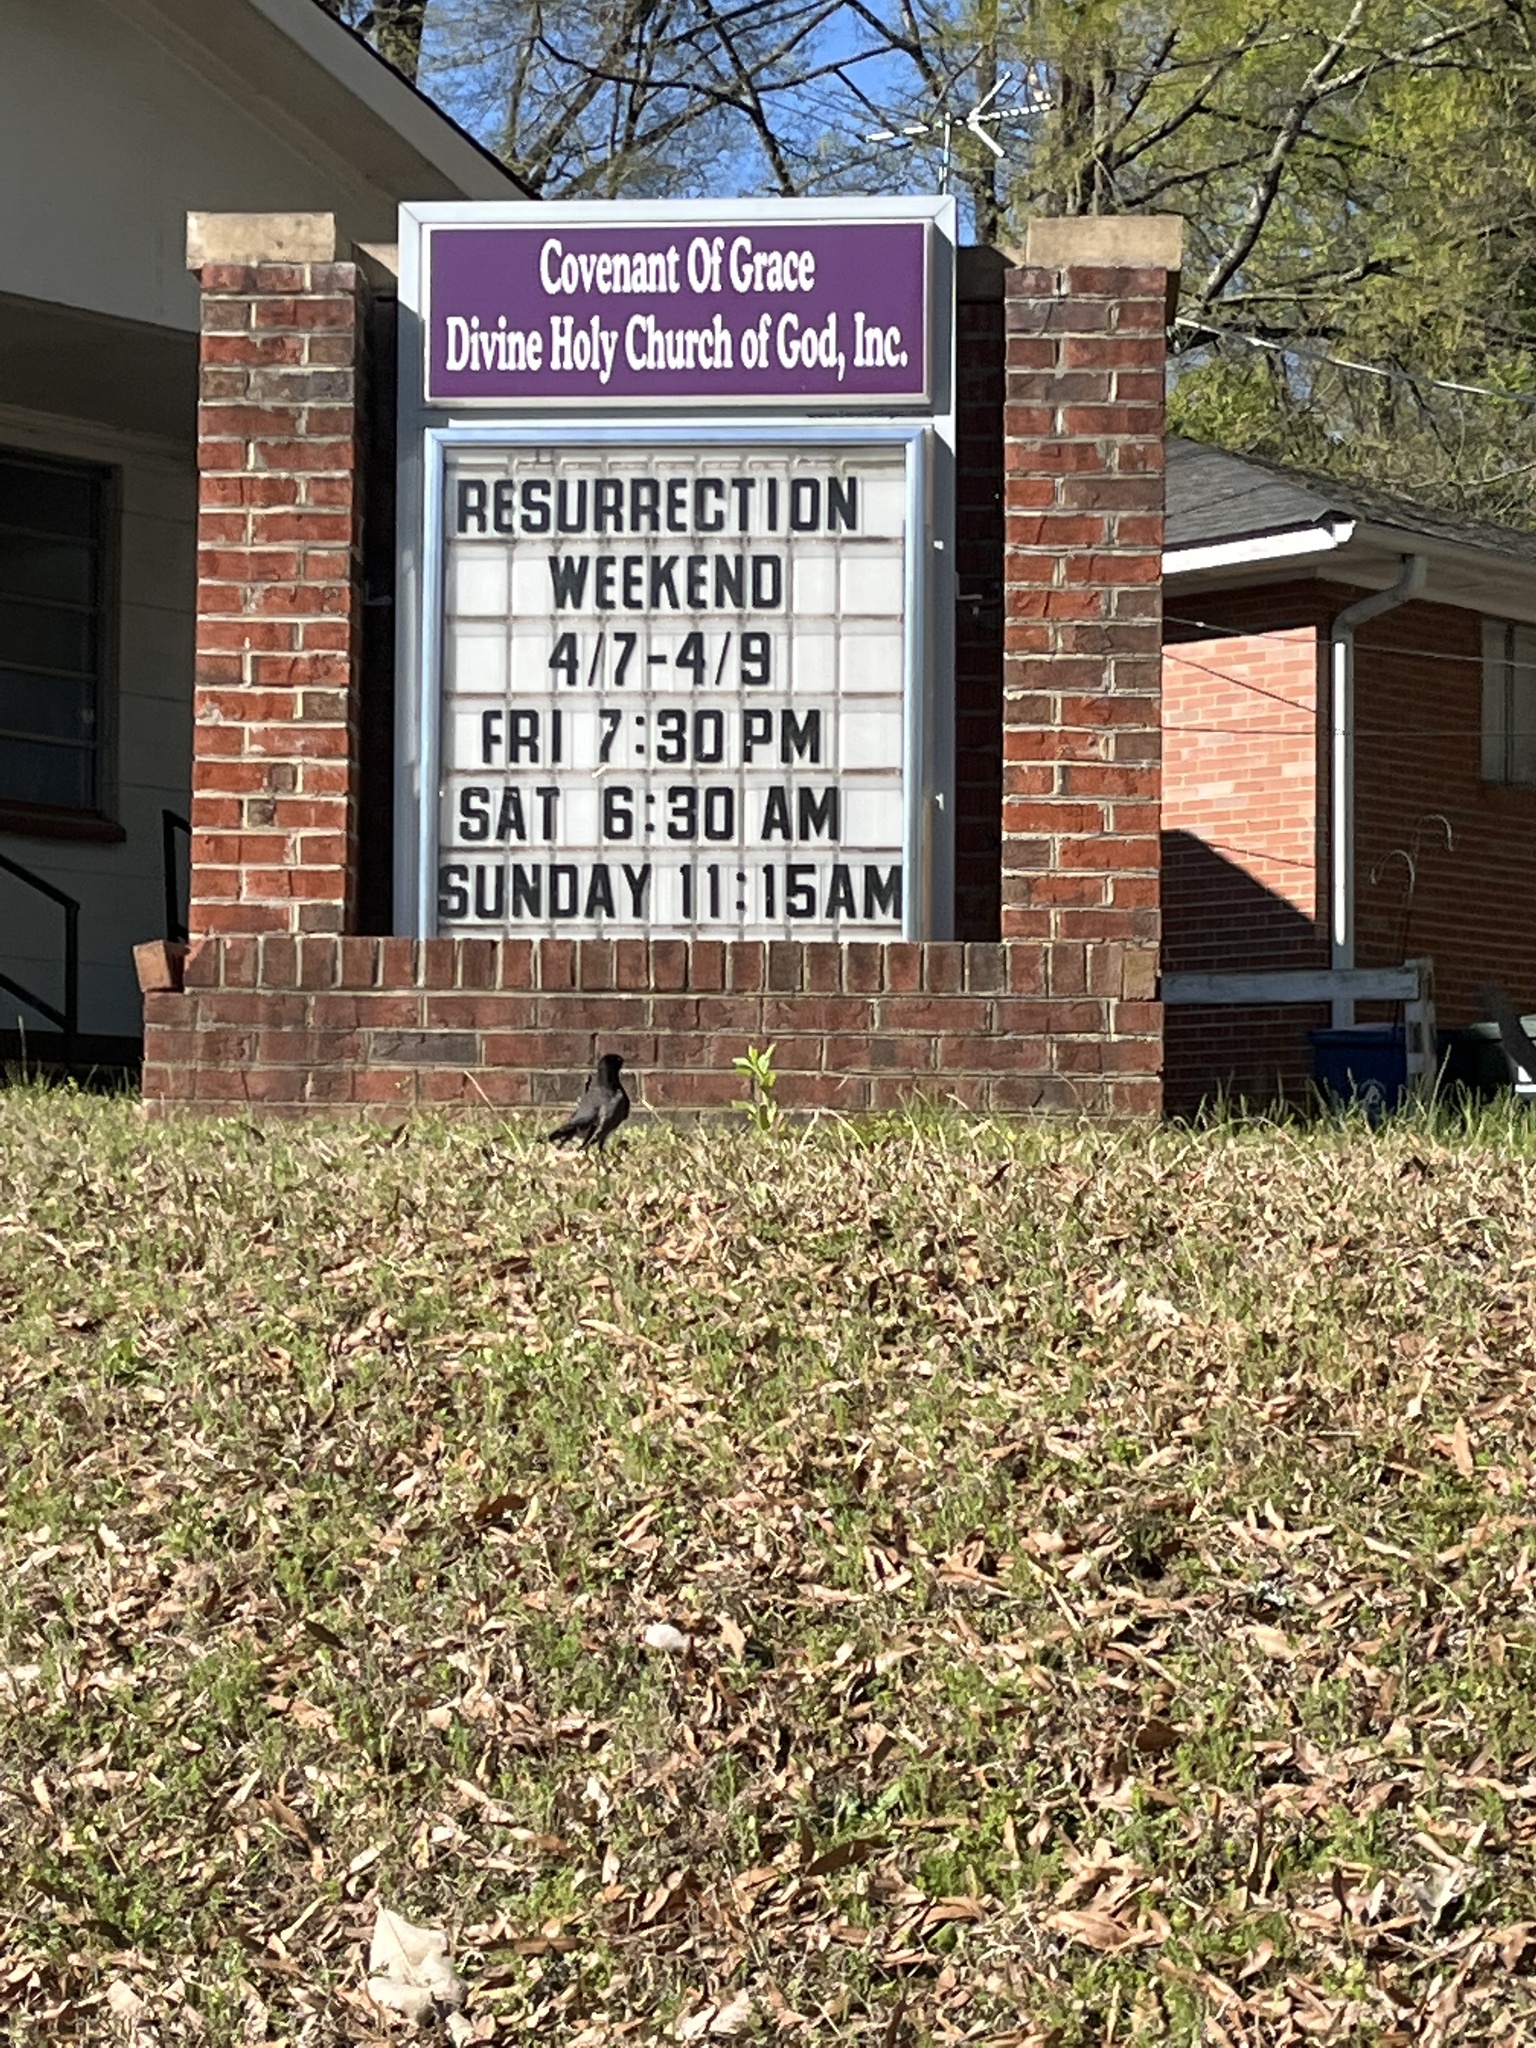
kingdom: Animalia
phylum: Chordata
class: Aves
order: Passeriformes
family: Turdidae
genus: Turdus
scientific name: Turdus migratorius
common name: American robin
